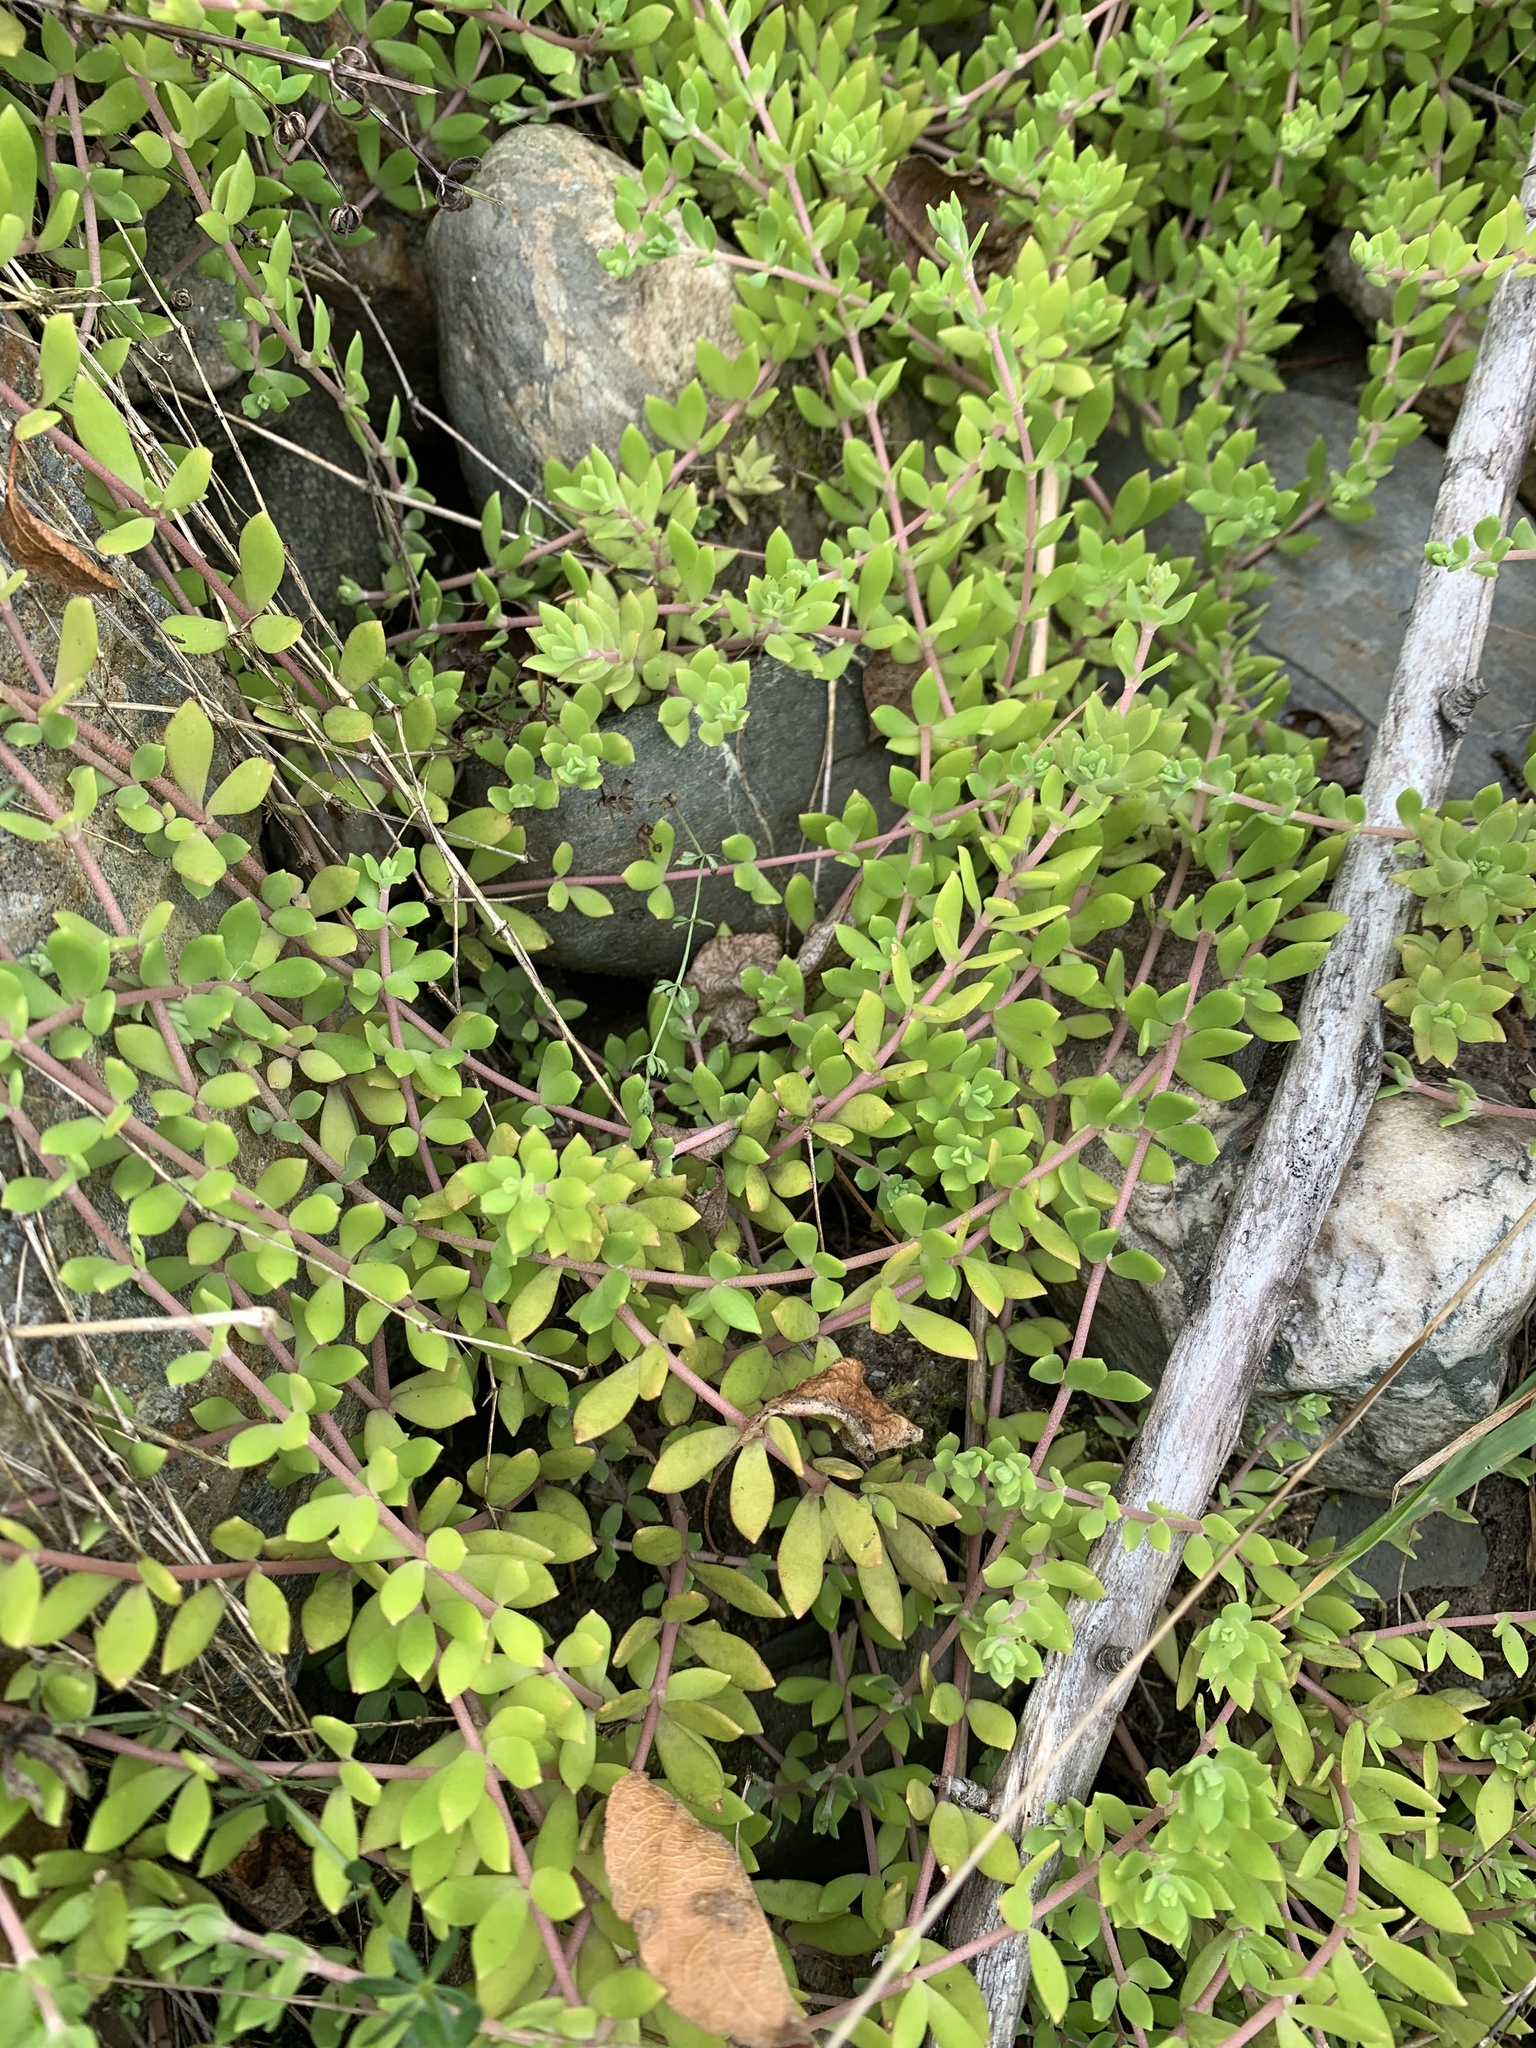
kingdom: Plantae
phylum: Tracheophyta
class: Magnoliopsida
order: Saxifragales
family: Crassulaceae
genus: Sedum
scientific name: Sedum sarmentosum
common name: Stringy stonecrop
